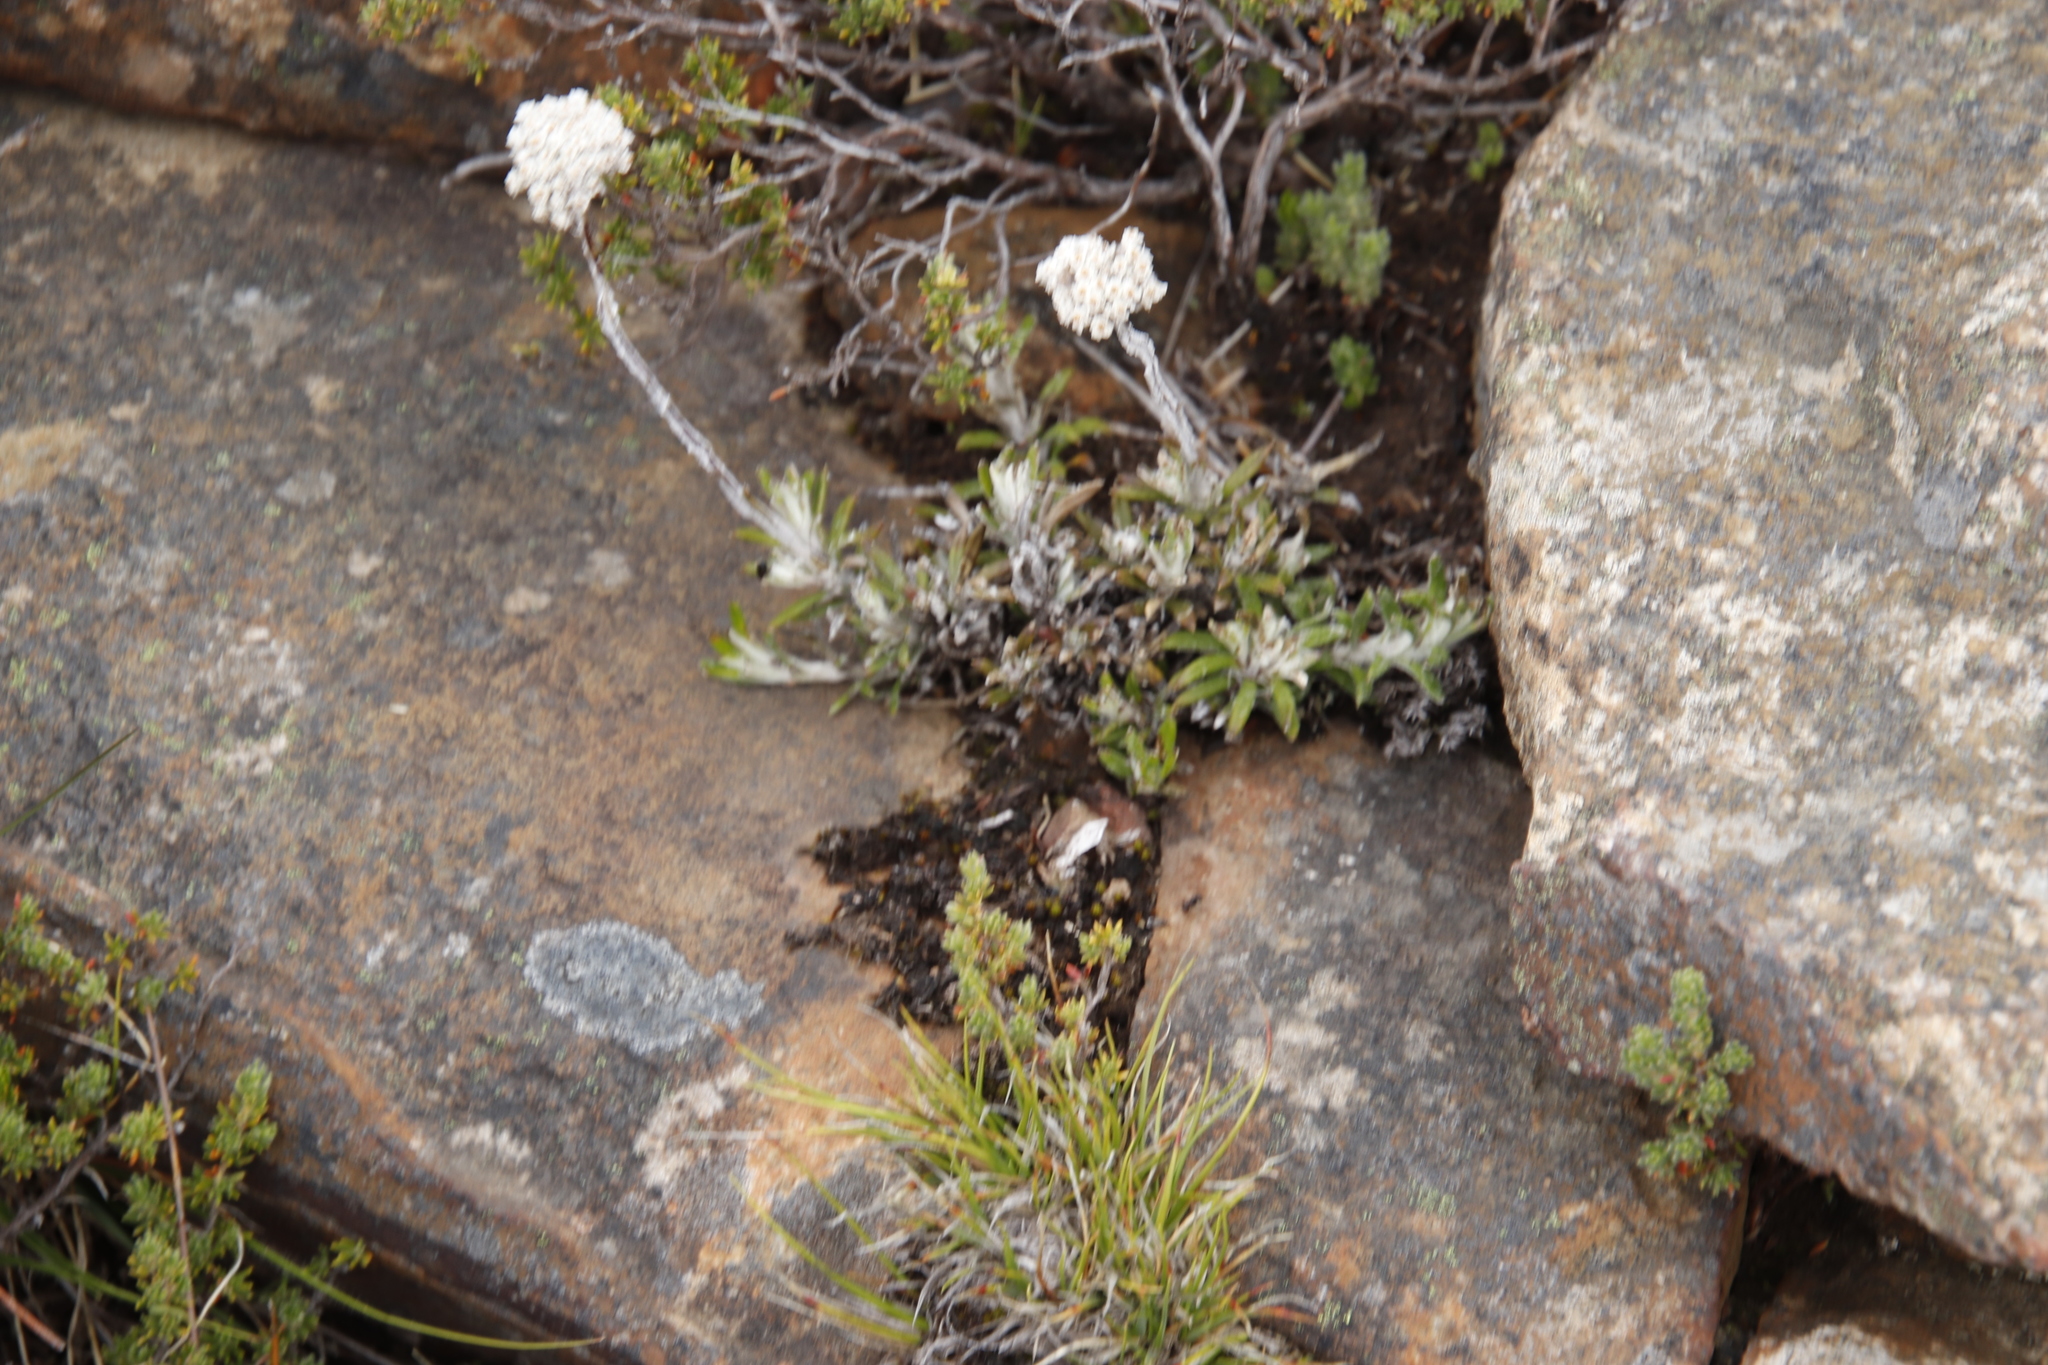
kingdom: Plantae
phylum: Tracheophyta
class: Magnoliopsida
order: Asterales
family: Asteraceae
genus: Anaxeton
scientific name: Anaxeton asperum
